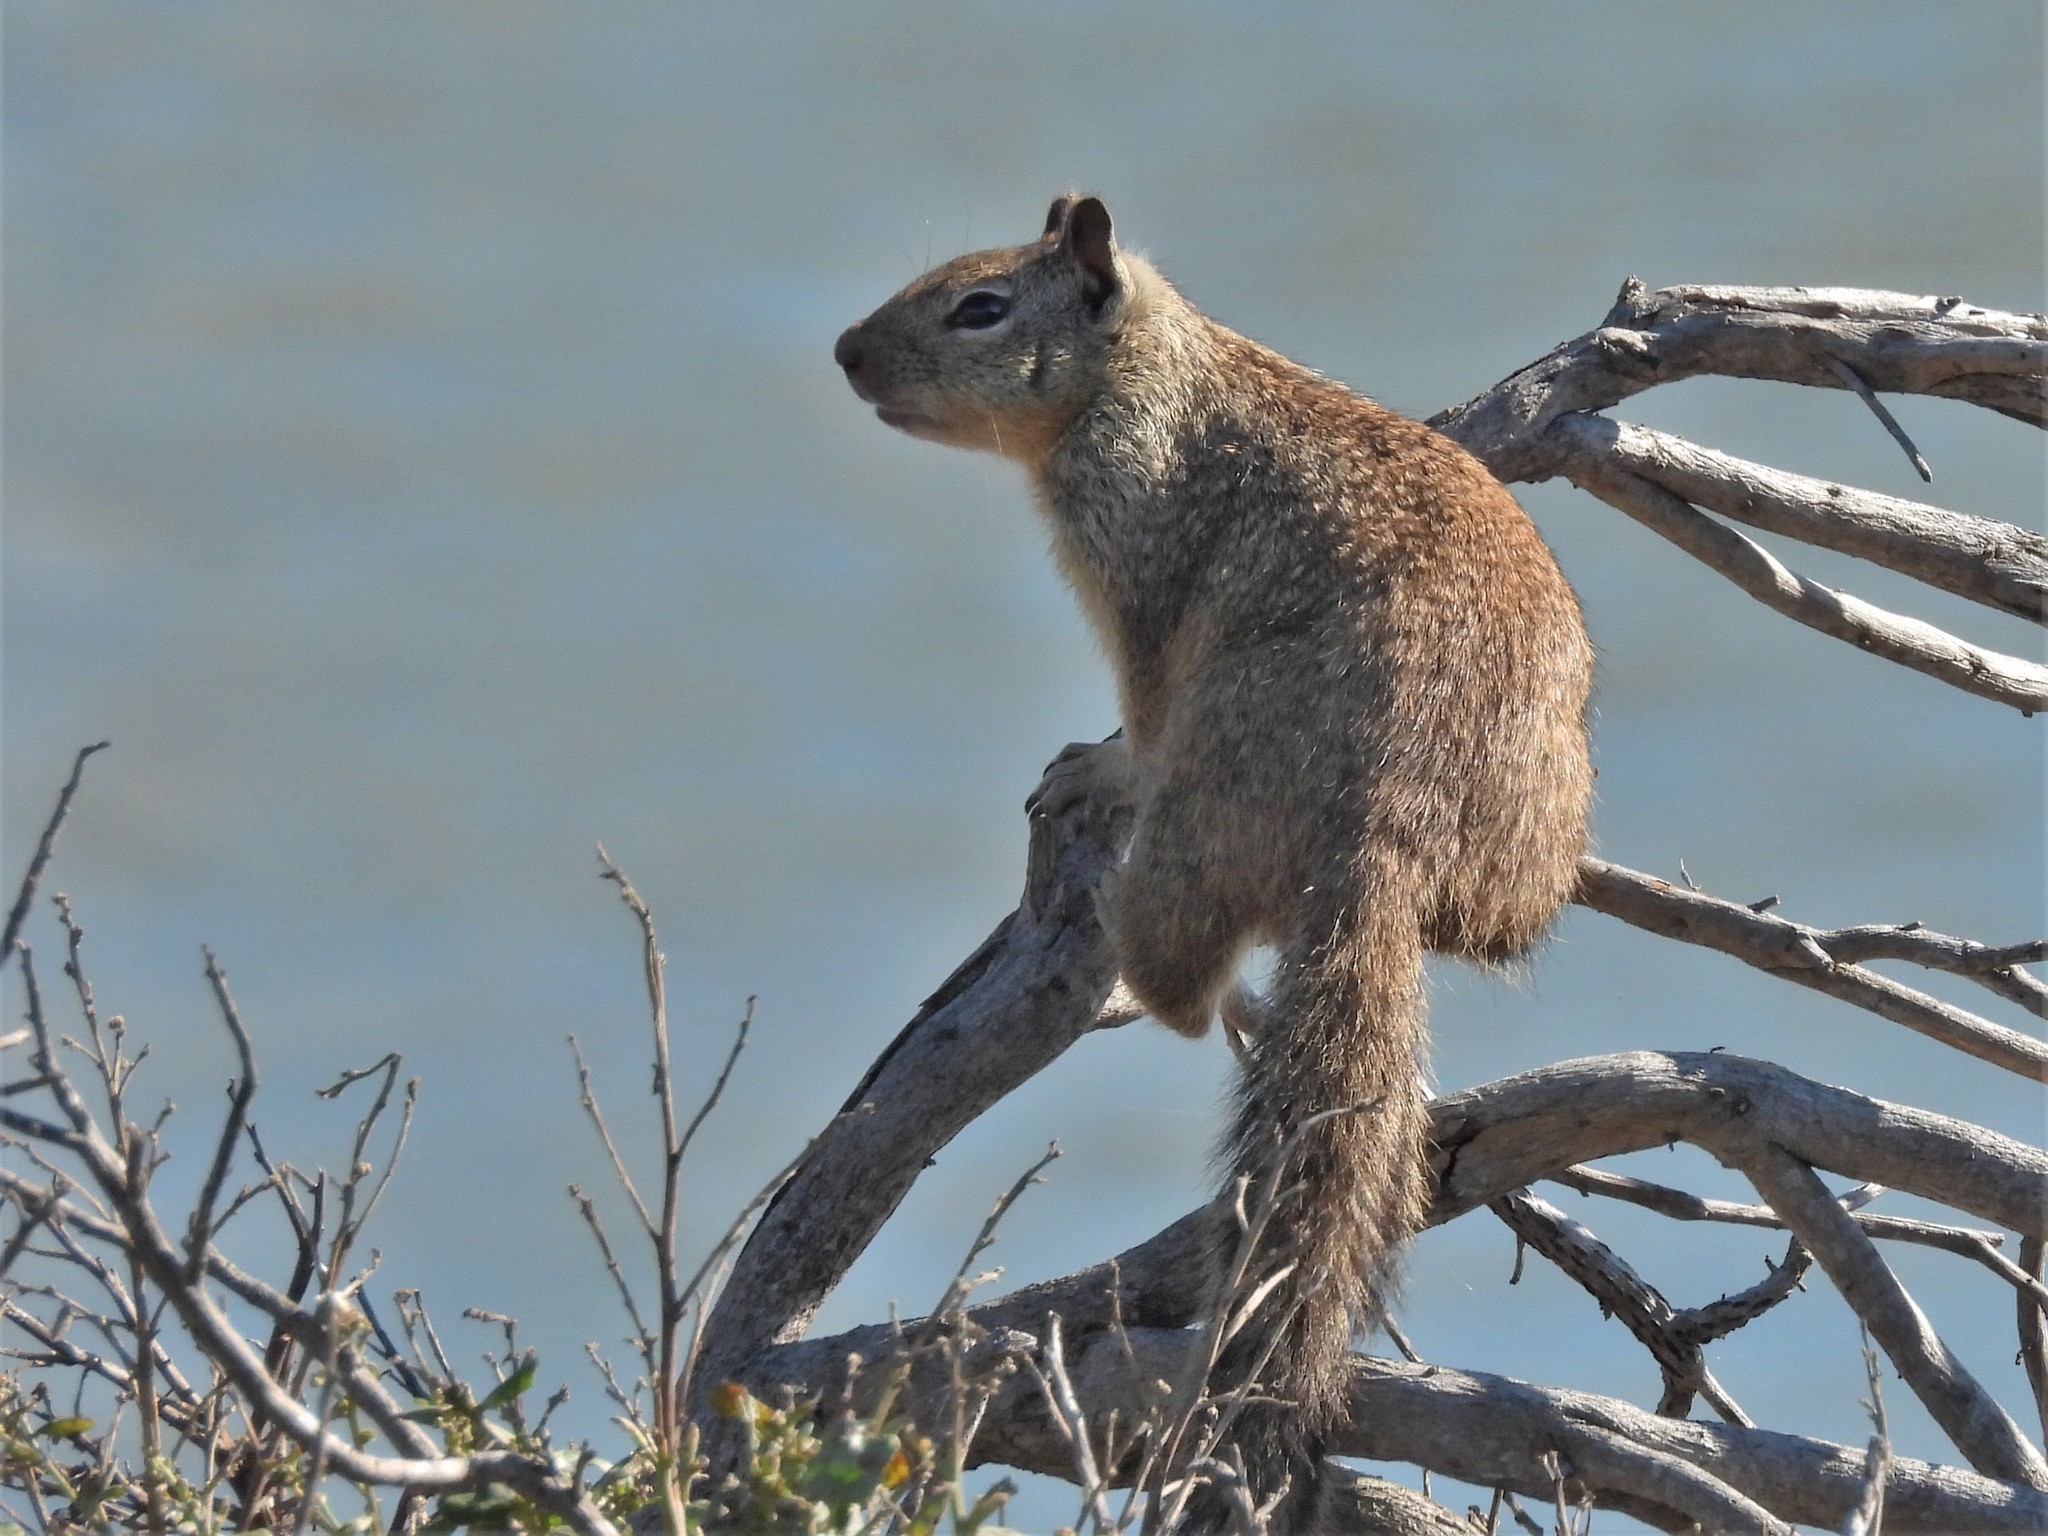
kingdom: Animalia
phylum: Chordata
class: Mammalia
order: Rodentia
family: Sciuridae
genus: Otospermophilus
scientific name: Otospermophilus beecheyi
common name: California ground squirrel
